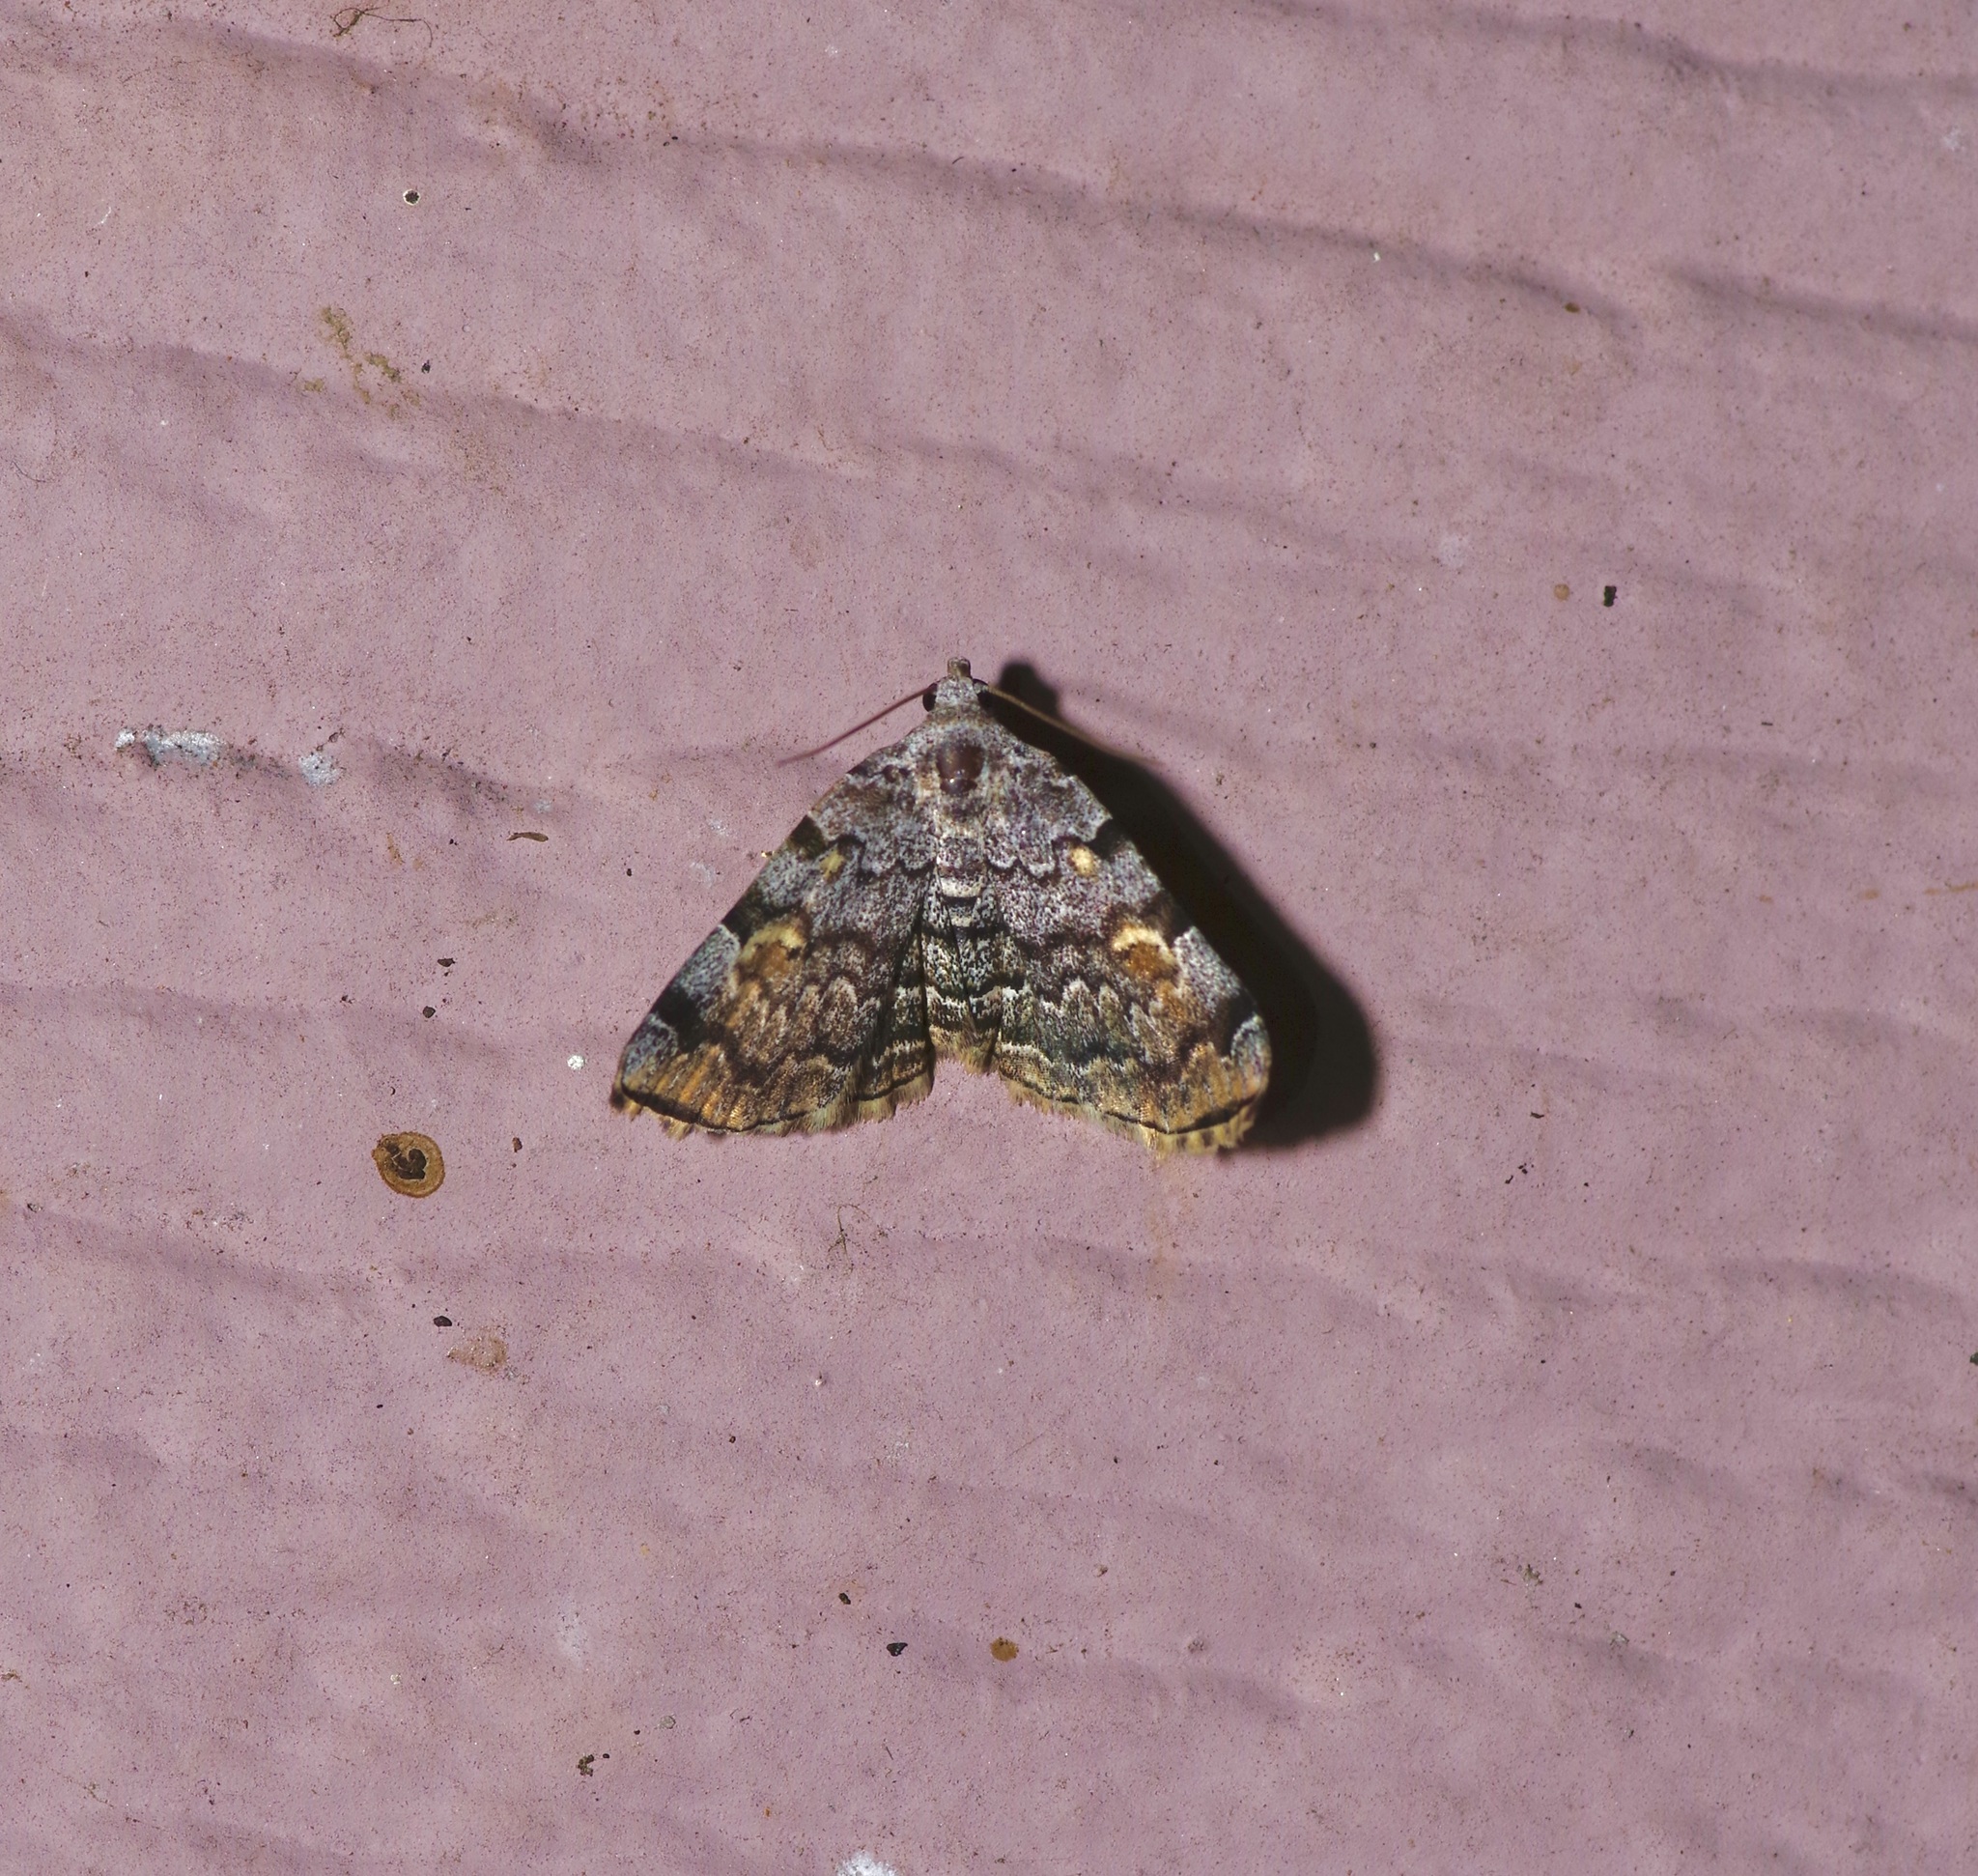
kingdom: Animalia
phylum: Arthropoda
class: Insecta
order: Lepidoptera
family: Erebidae
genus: Idia
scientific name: Idia americalis
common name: American idia moth
